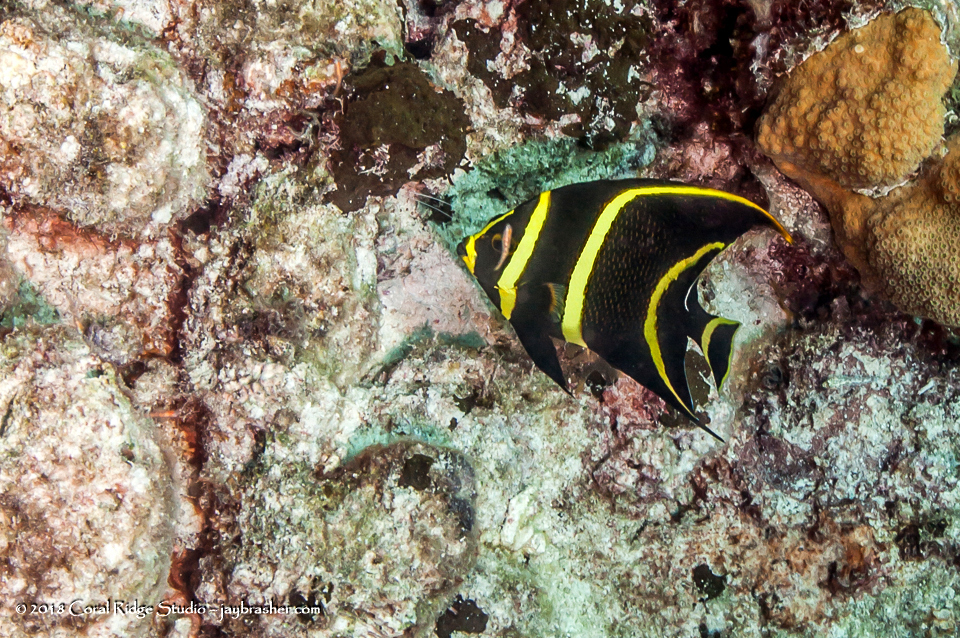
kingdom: Animalia
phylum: Chordata
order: Perciformes
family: Pomacanthidae
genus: Pomacanthus
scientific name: Pomacanthus paru
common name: French angelfish
